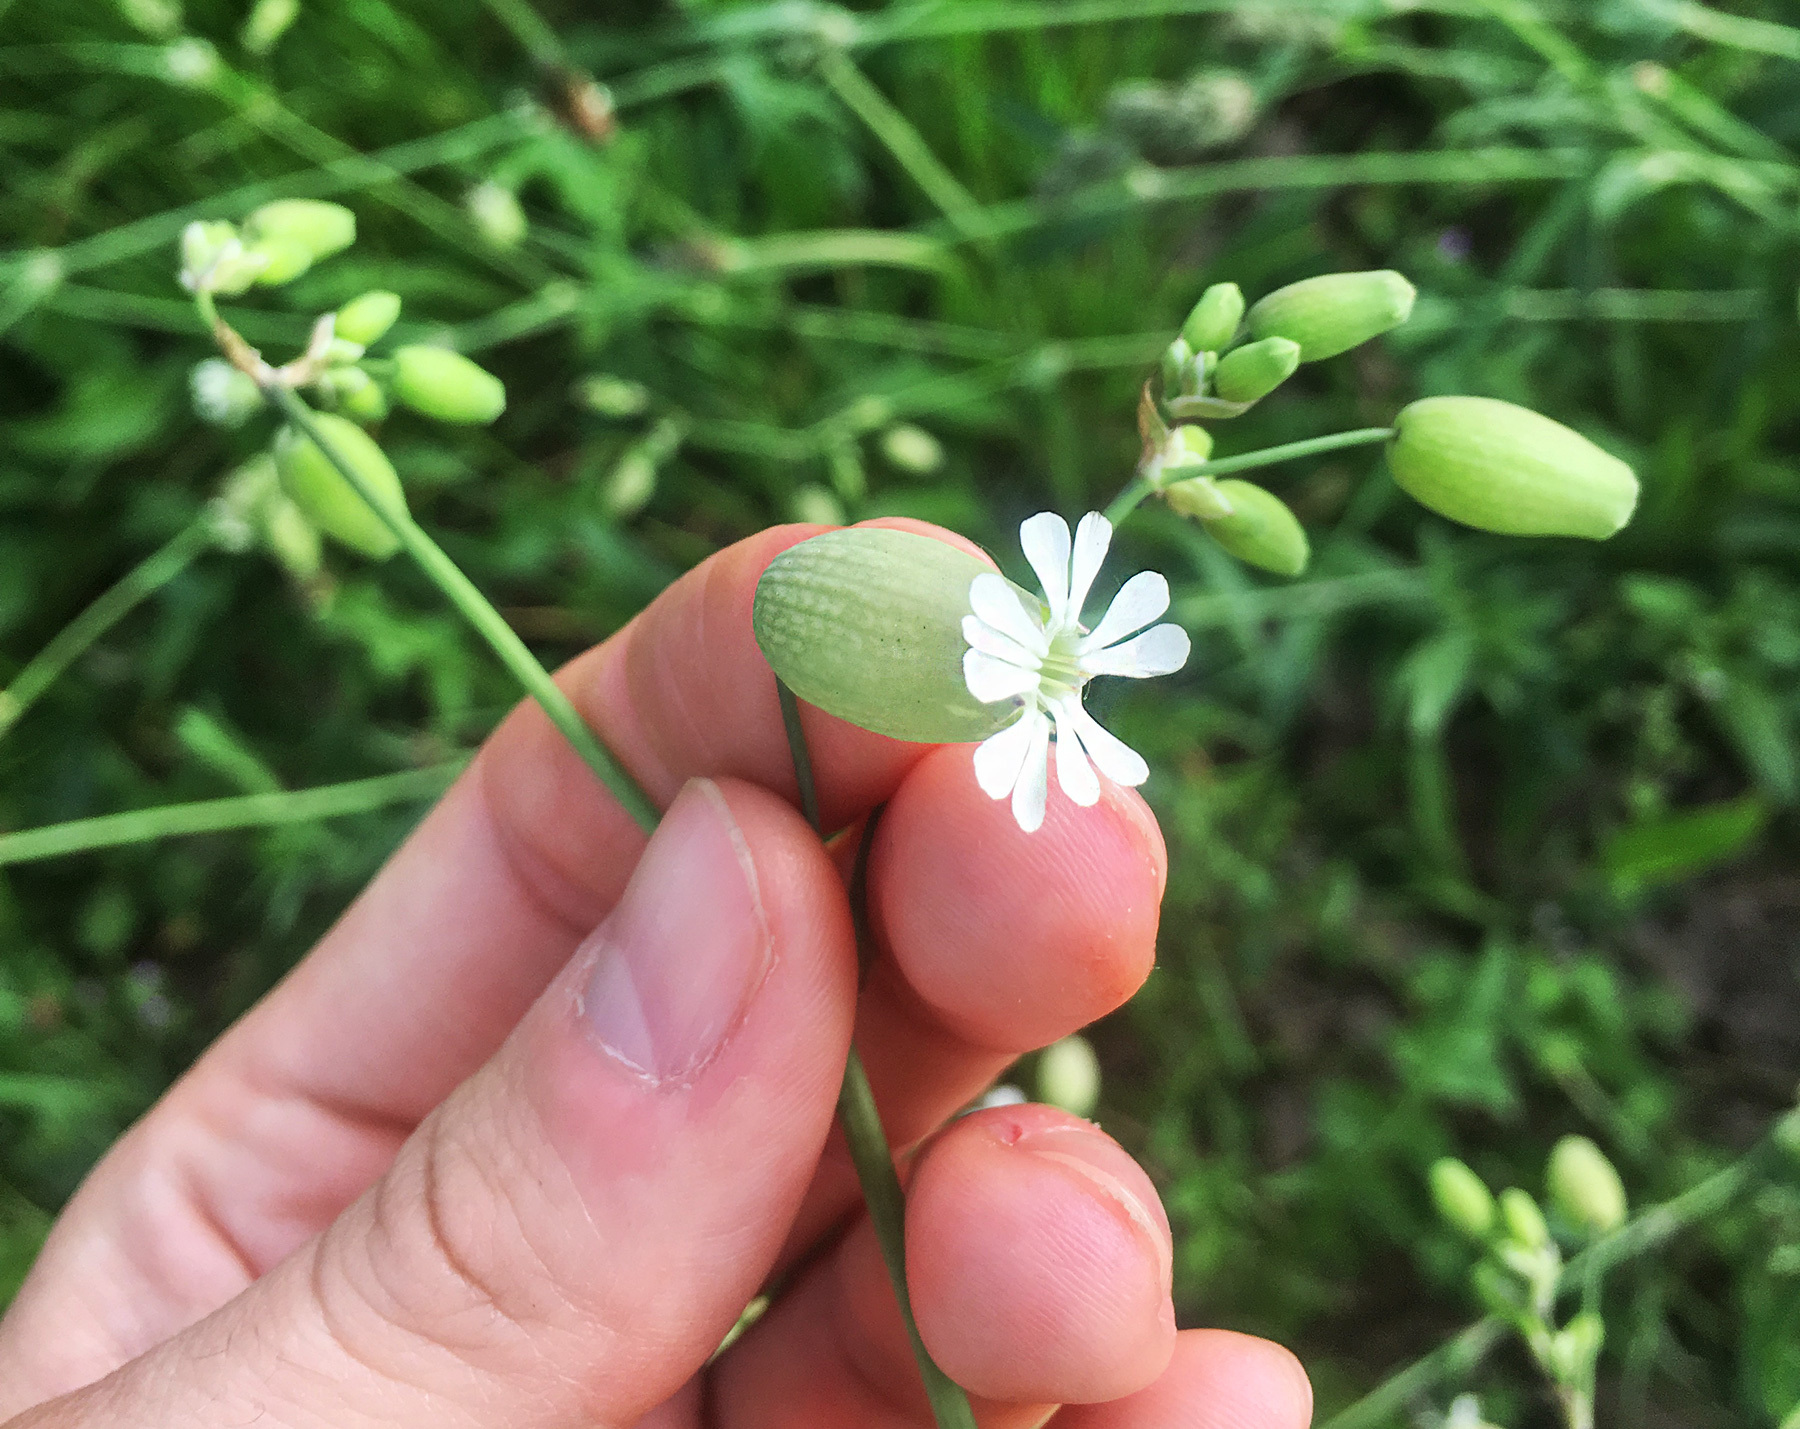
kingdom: Plantae
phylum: Tracheophyta
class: Magnoliopsida
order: Caryophyllales
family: Caryophyllaceae
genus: Silene
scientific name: Silene vulgaris
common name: Bladder campion
